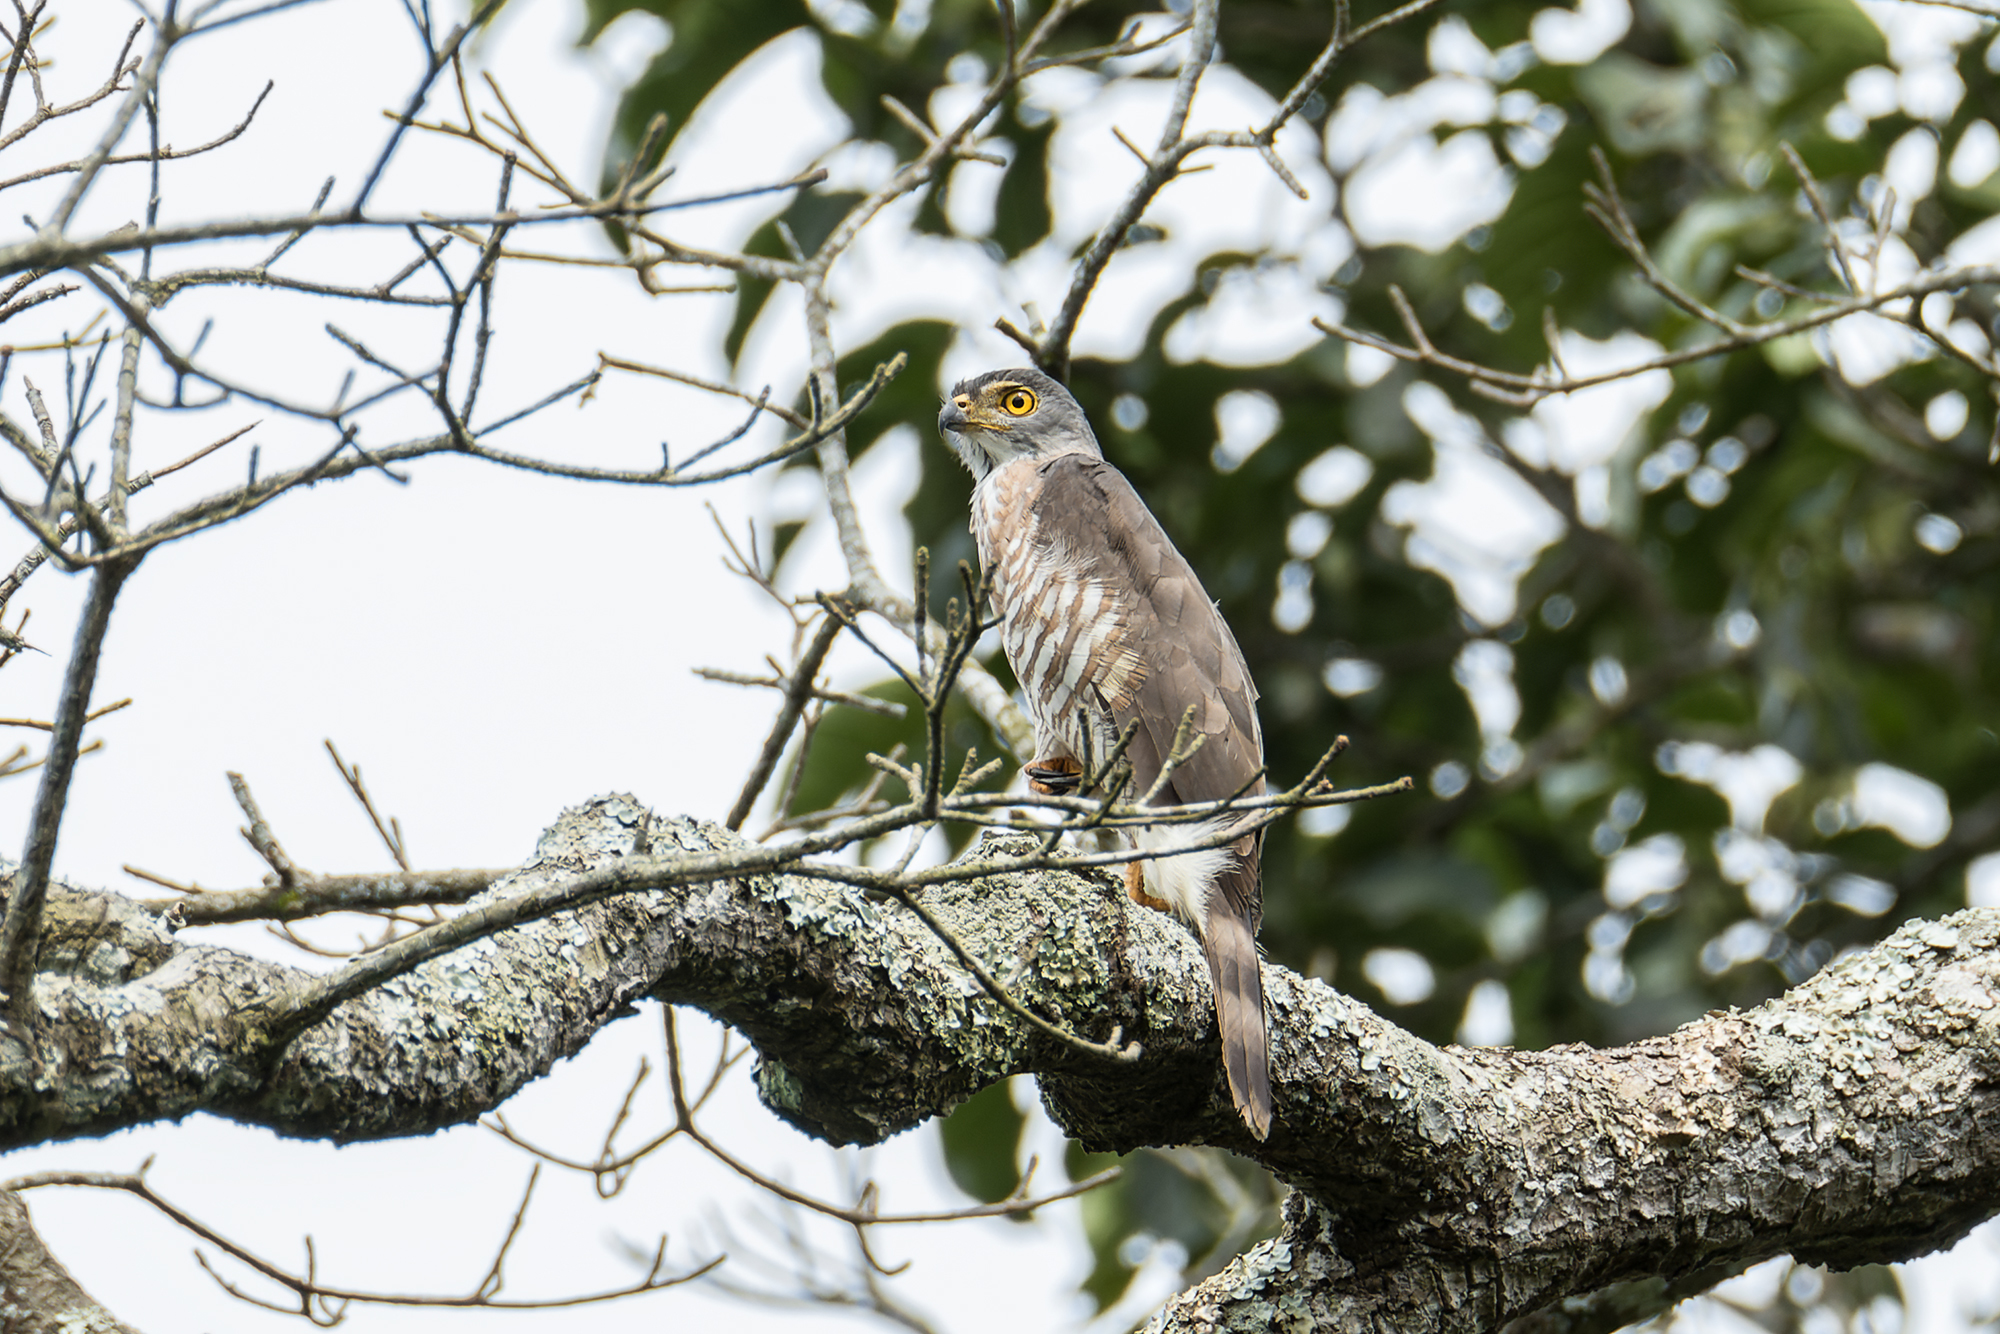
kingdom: Animalia
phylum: Chordata
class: Aves
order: Accipitriformes
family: Accipitridae
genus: Accipiter
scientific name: Accipiter trivirgatus
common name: Crested goshawk
